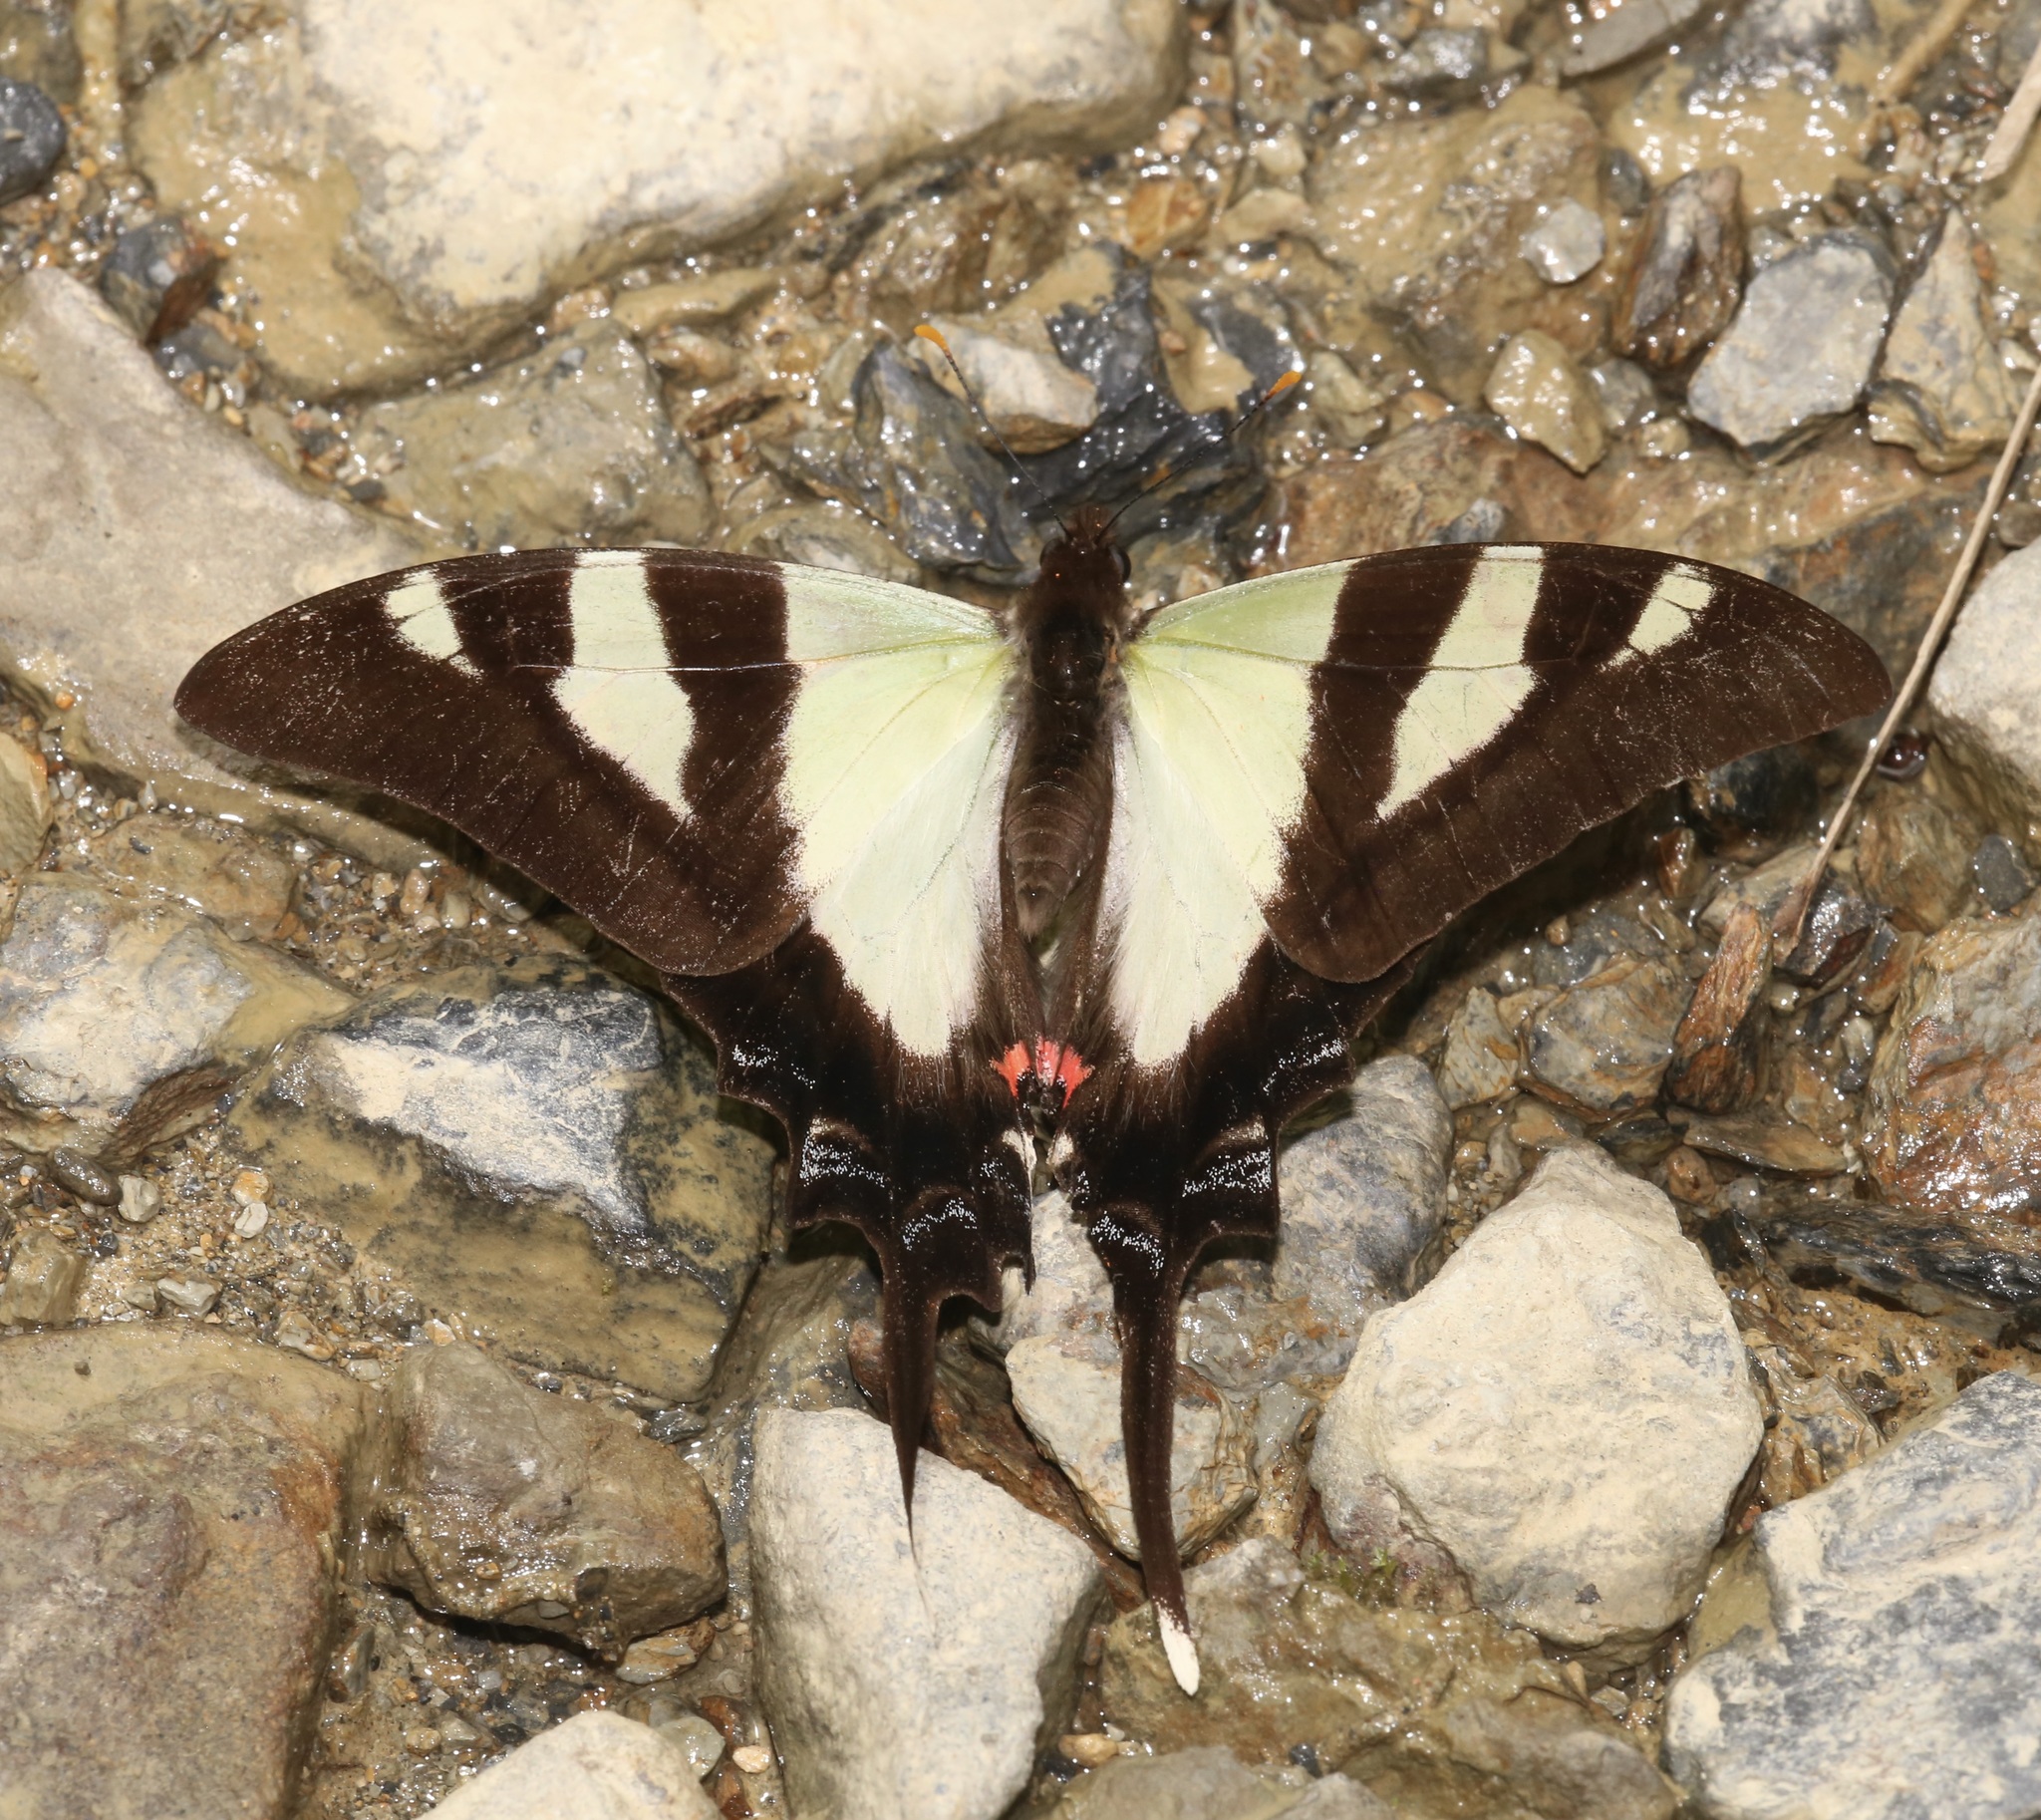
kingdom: Animalia
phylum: Arthropoda
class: Insecta
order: Lepidoptera
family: Papilionidae
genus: Eurytides
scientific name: Eurytides
